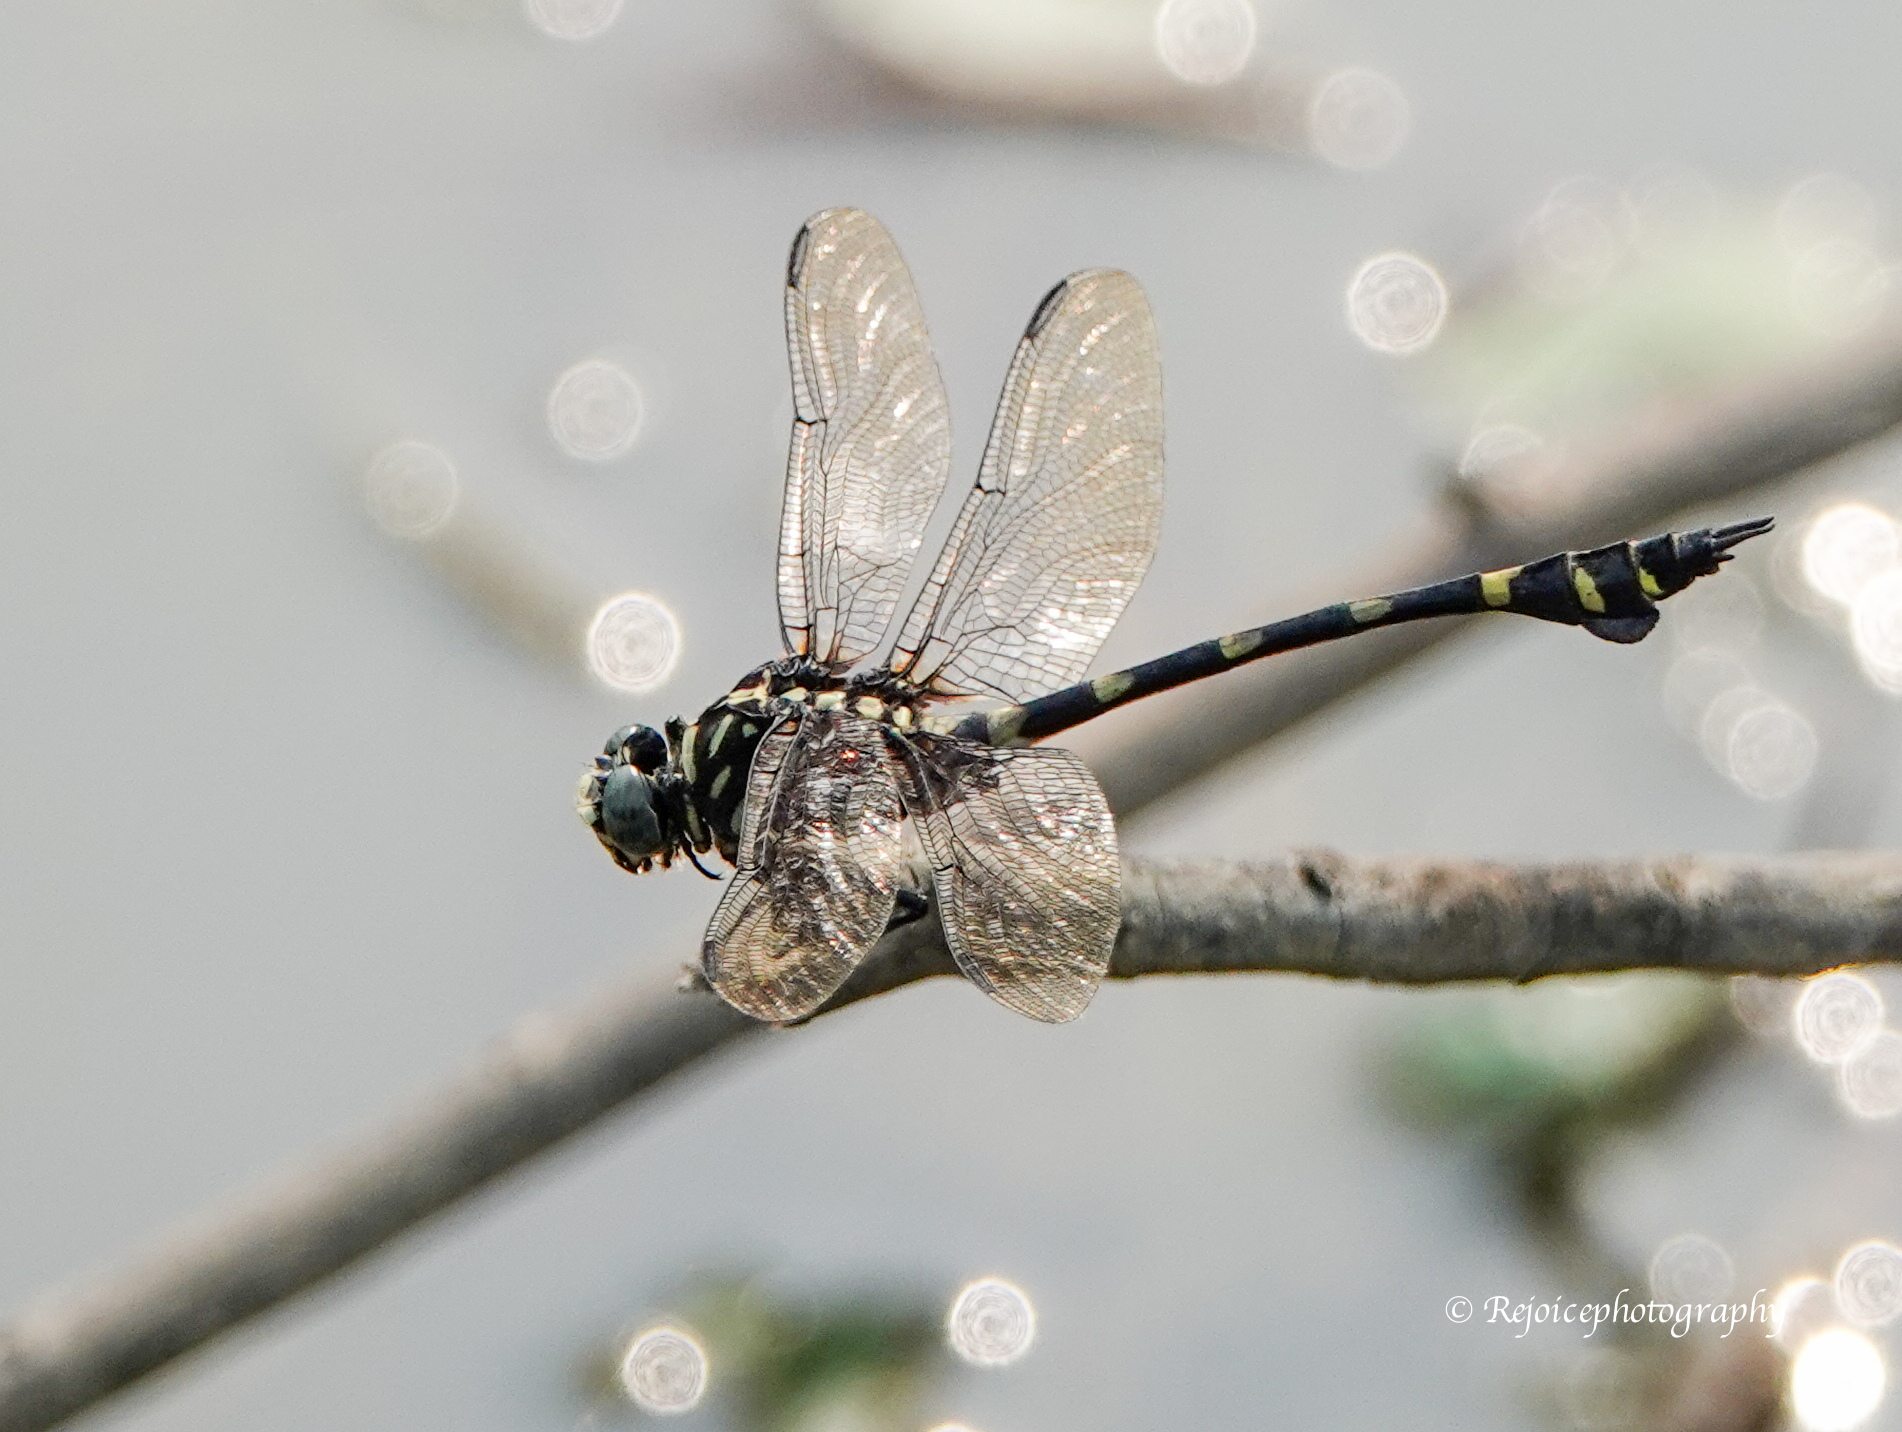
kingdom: Animalia
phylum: Arthropoda
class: Insecta
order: Odonata
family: Gomphidae
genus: Ictinogomphus
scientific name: Ictinogomphus rapax
